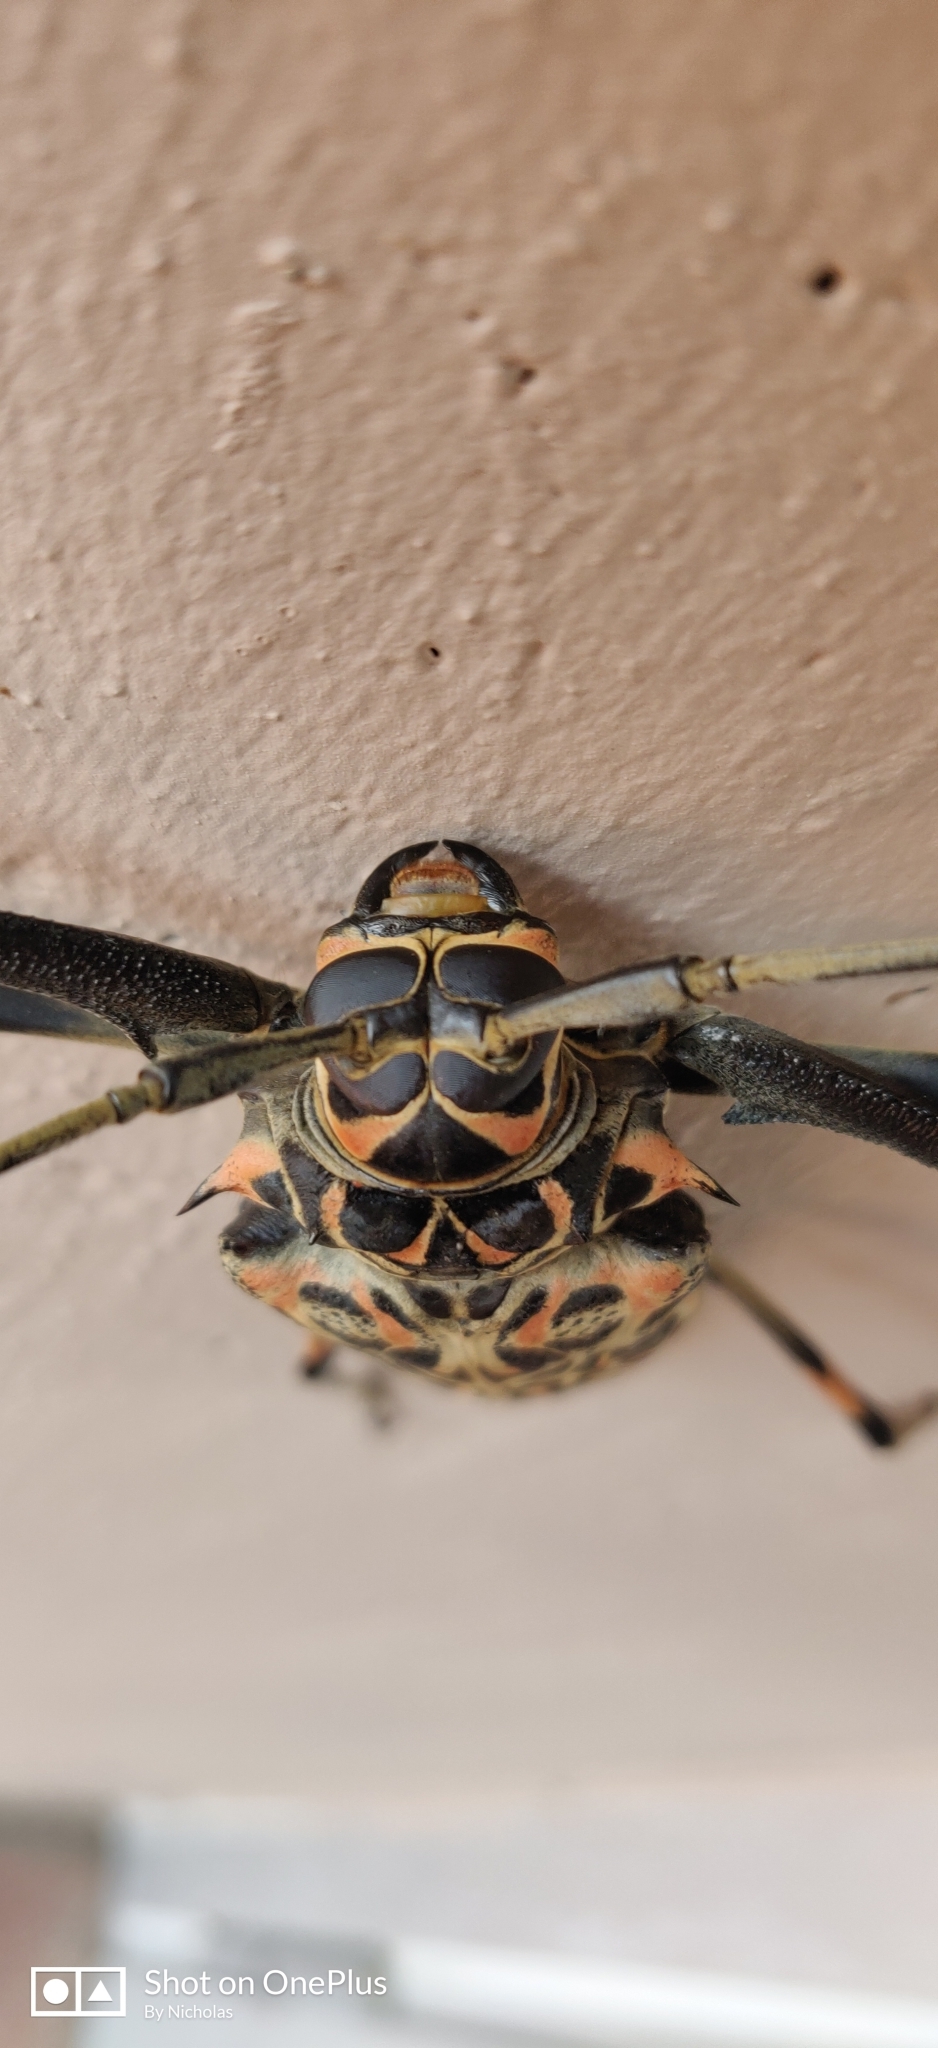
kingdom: Animalia
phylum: Arthropoda
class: Insecta
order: Coleoptera
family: Cerambycidae
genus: Acrocinus
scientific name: Acrocinus longimanus
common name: Arlequin
